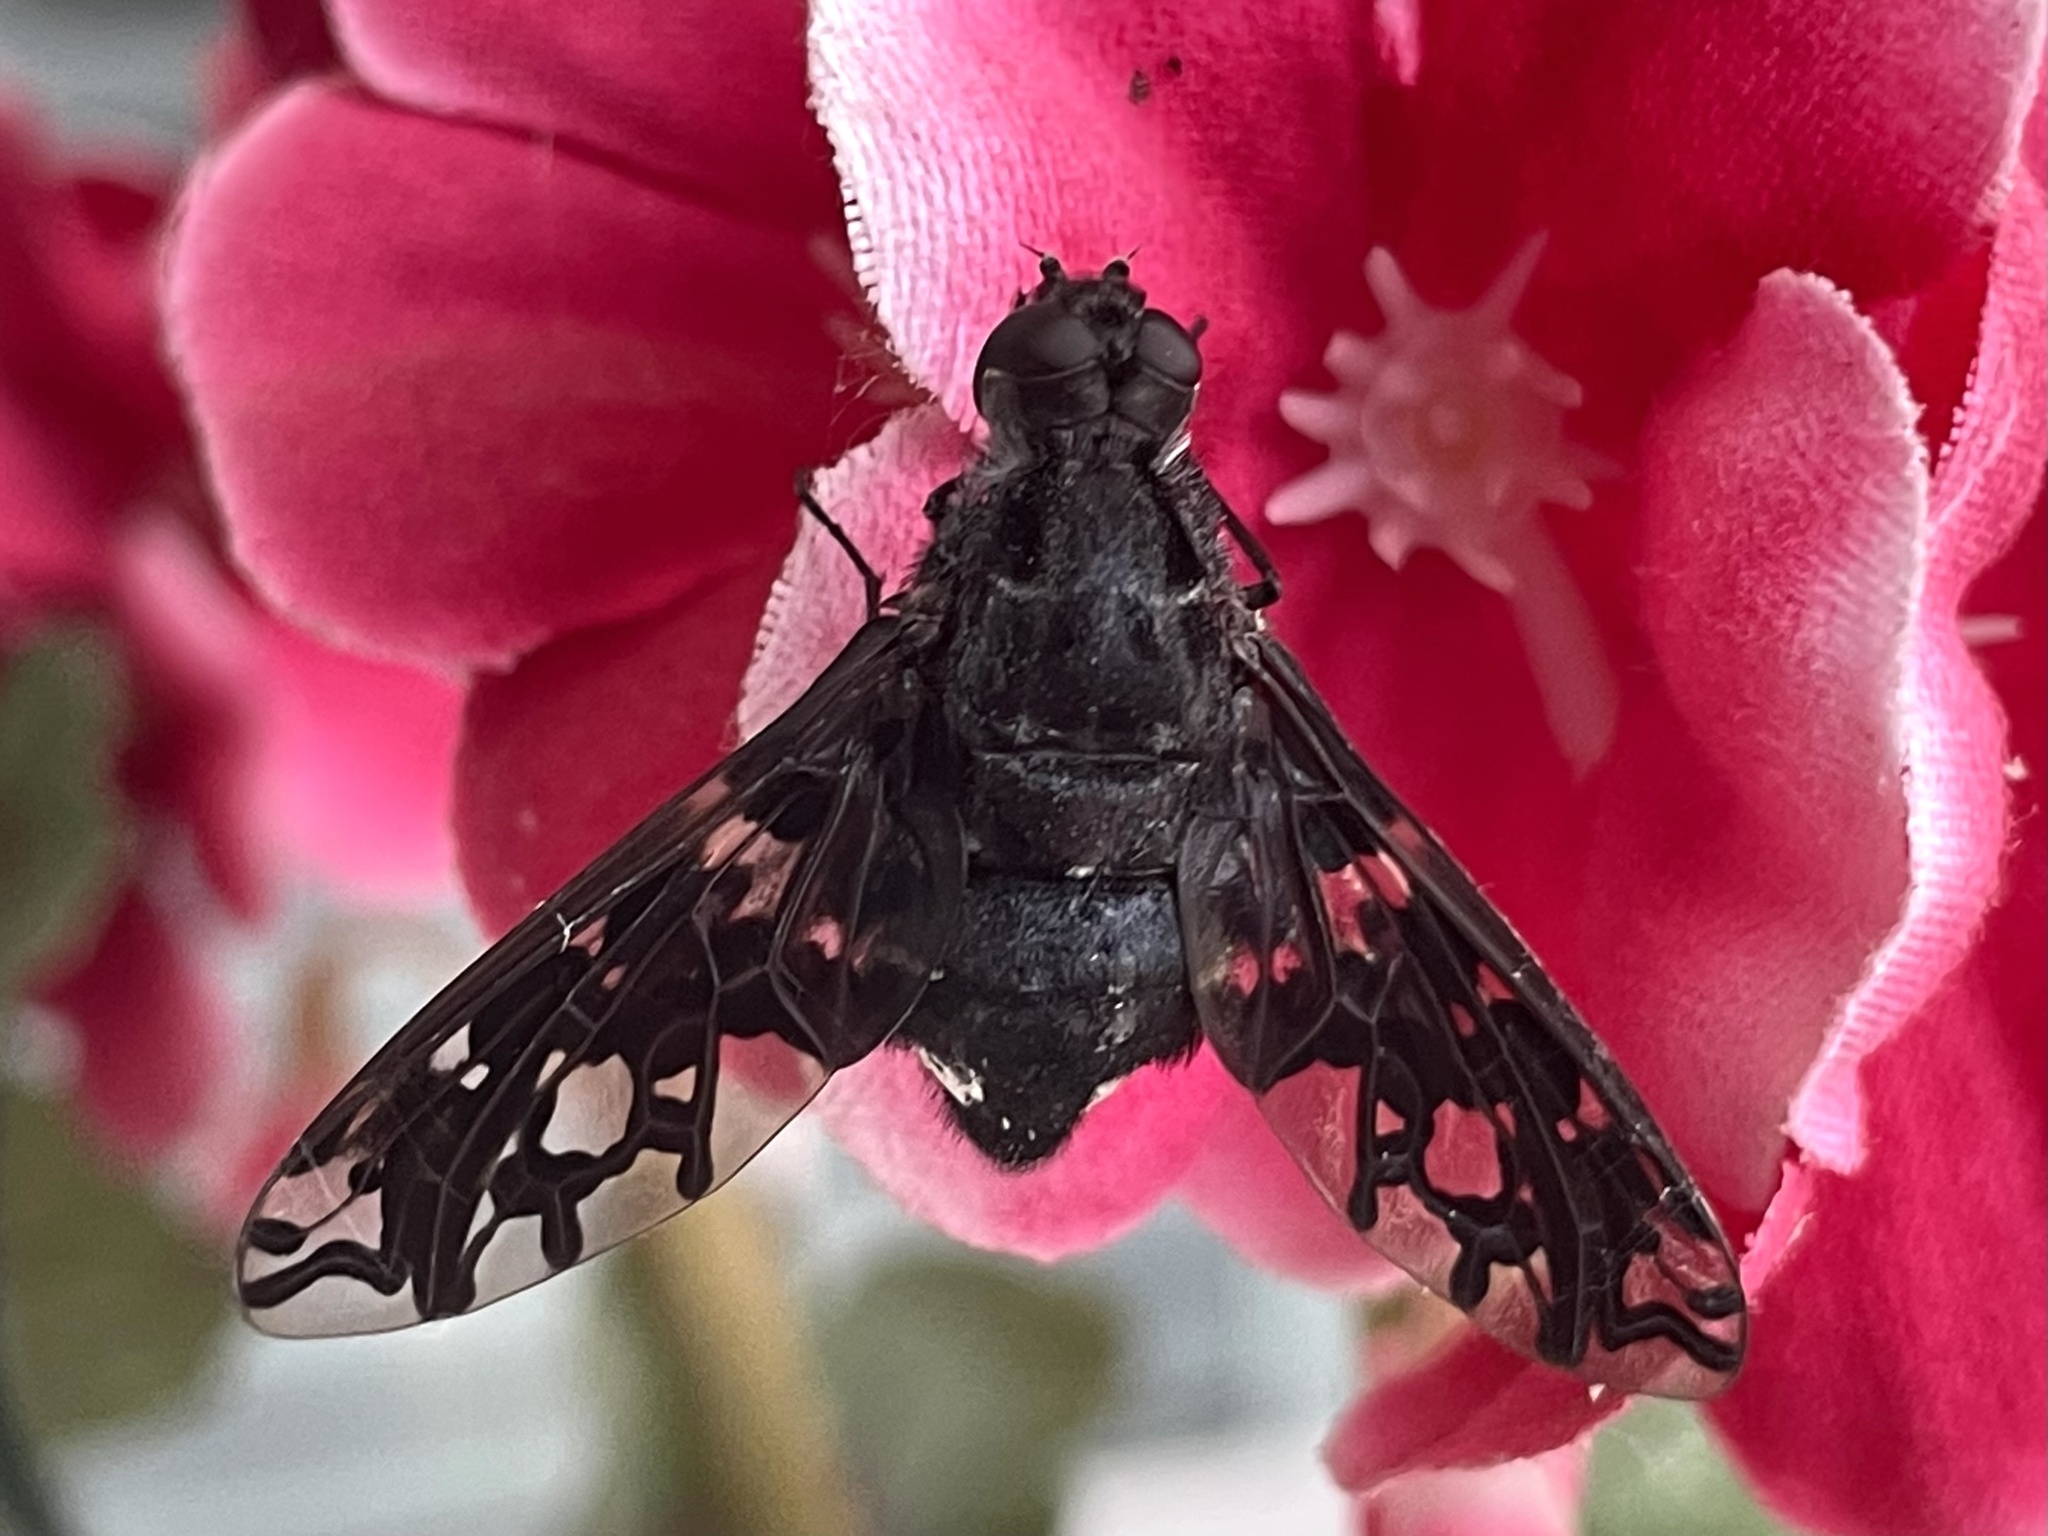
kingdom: Animalia
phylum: Arthropoda
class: Insecta
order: Diptera
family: Bombyliidae
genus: Xenox
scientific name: Xenox tigrinus
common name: Tiger bee fly
